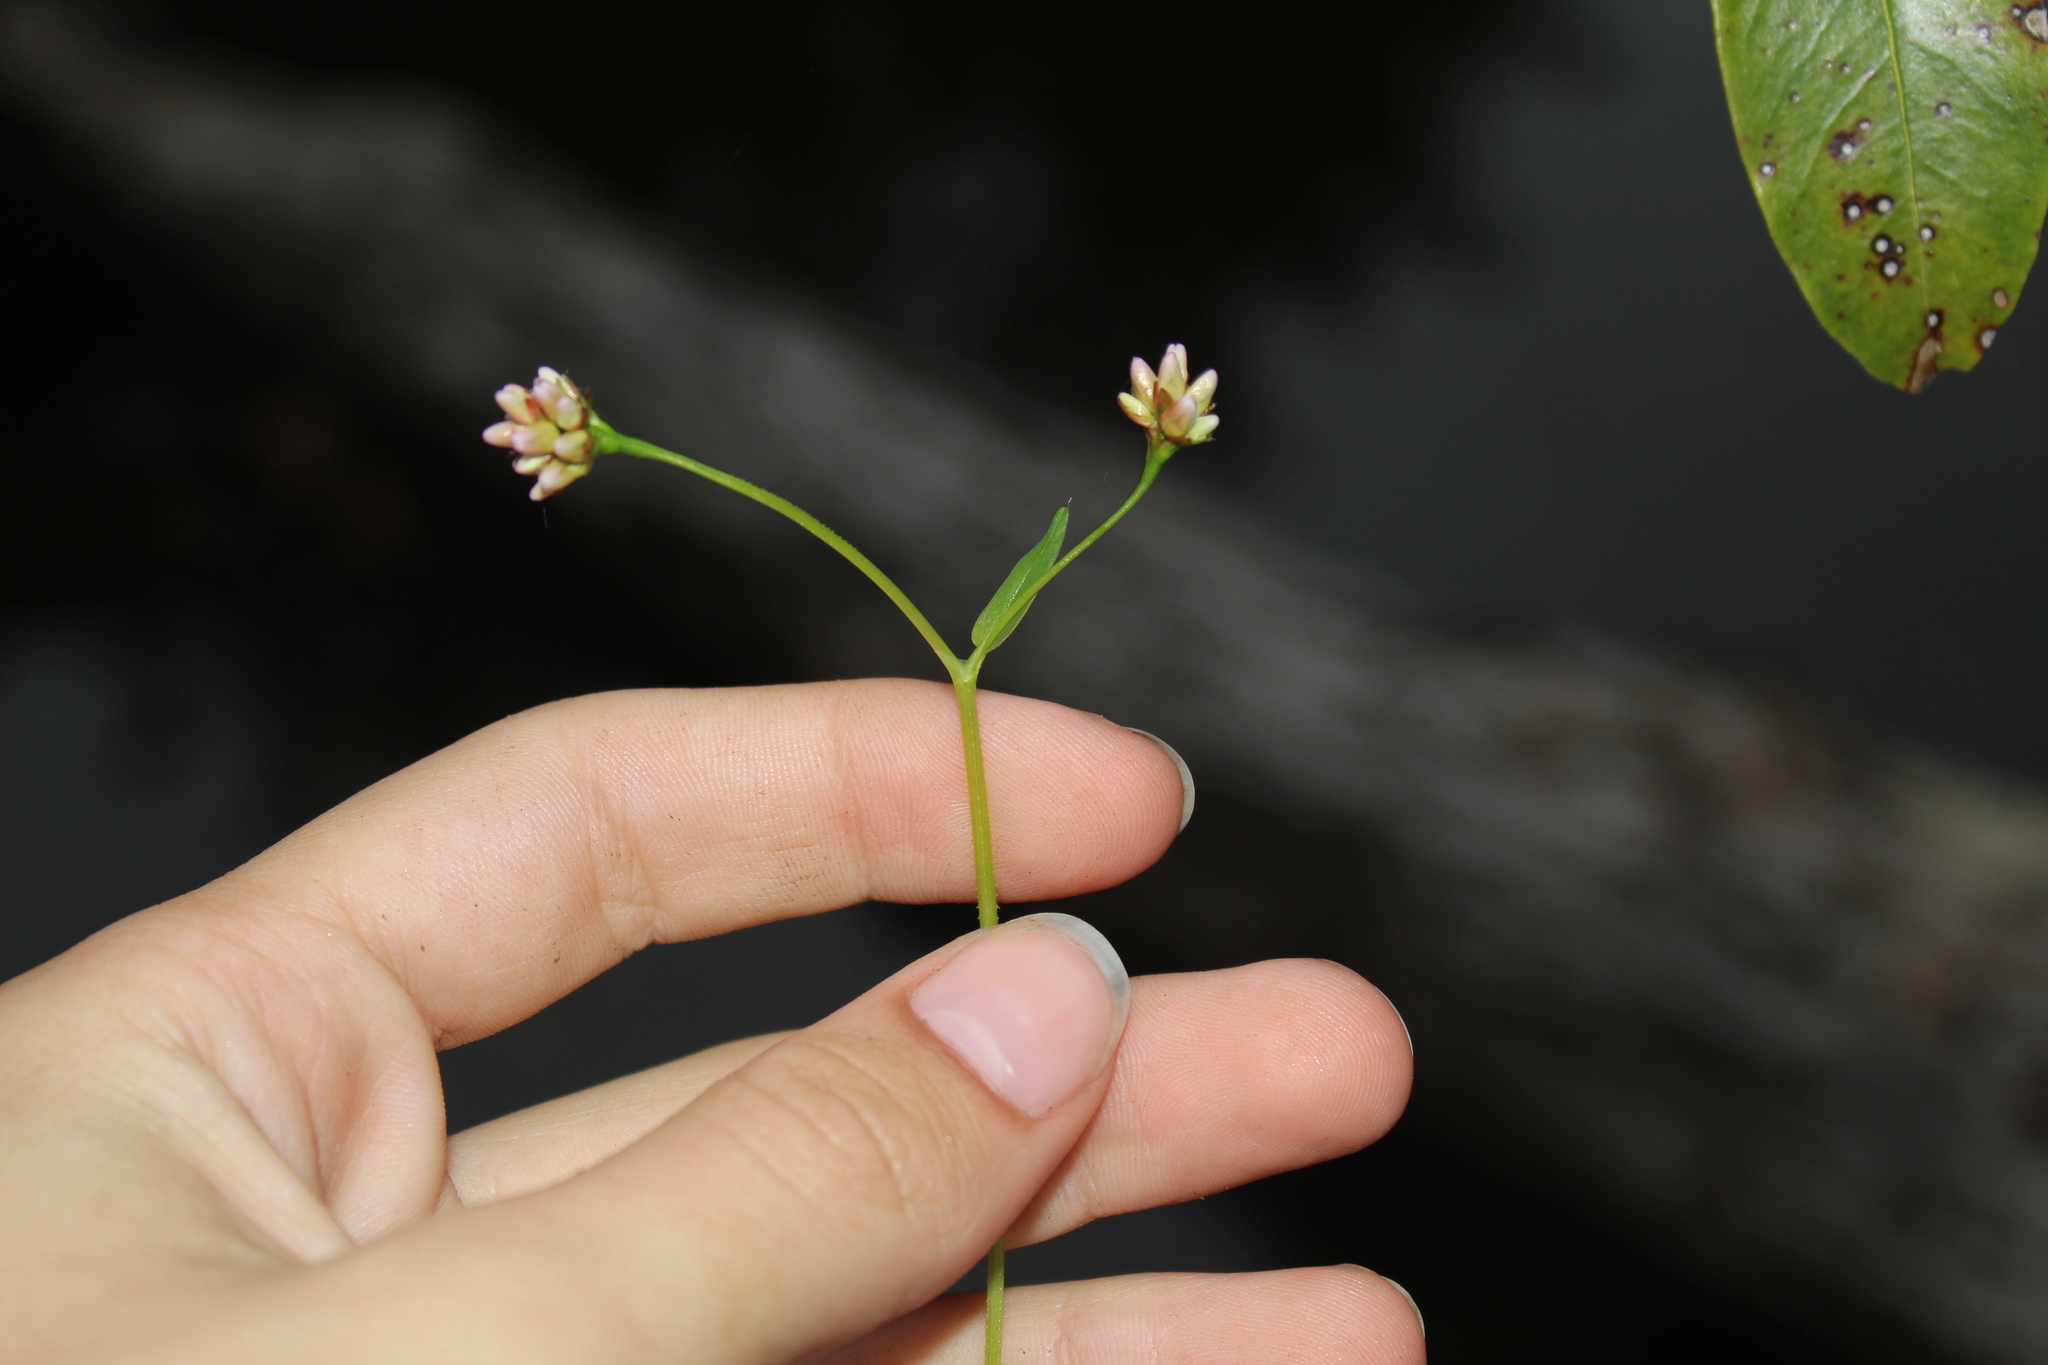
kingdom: Plantae
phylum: Tracheophyta
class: Magnoliopsida
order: Caryophyllales
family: Polygonaceae
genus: Persicaria
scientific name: Persicaria sagittata
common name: American tearthumb
